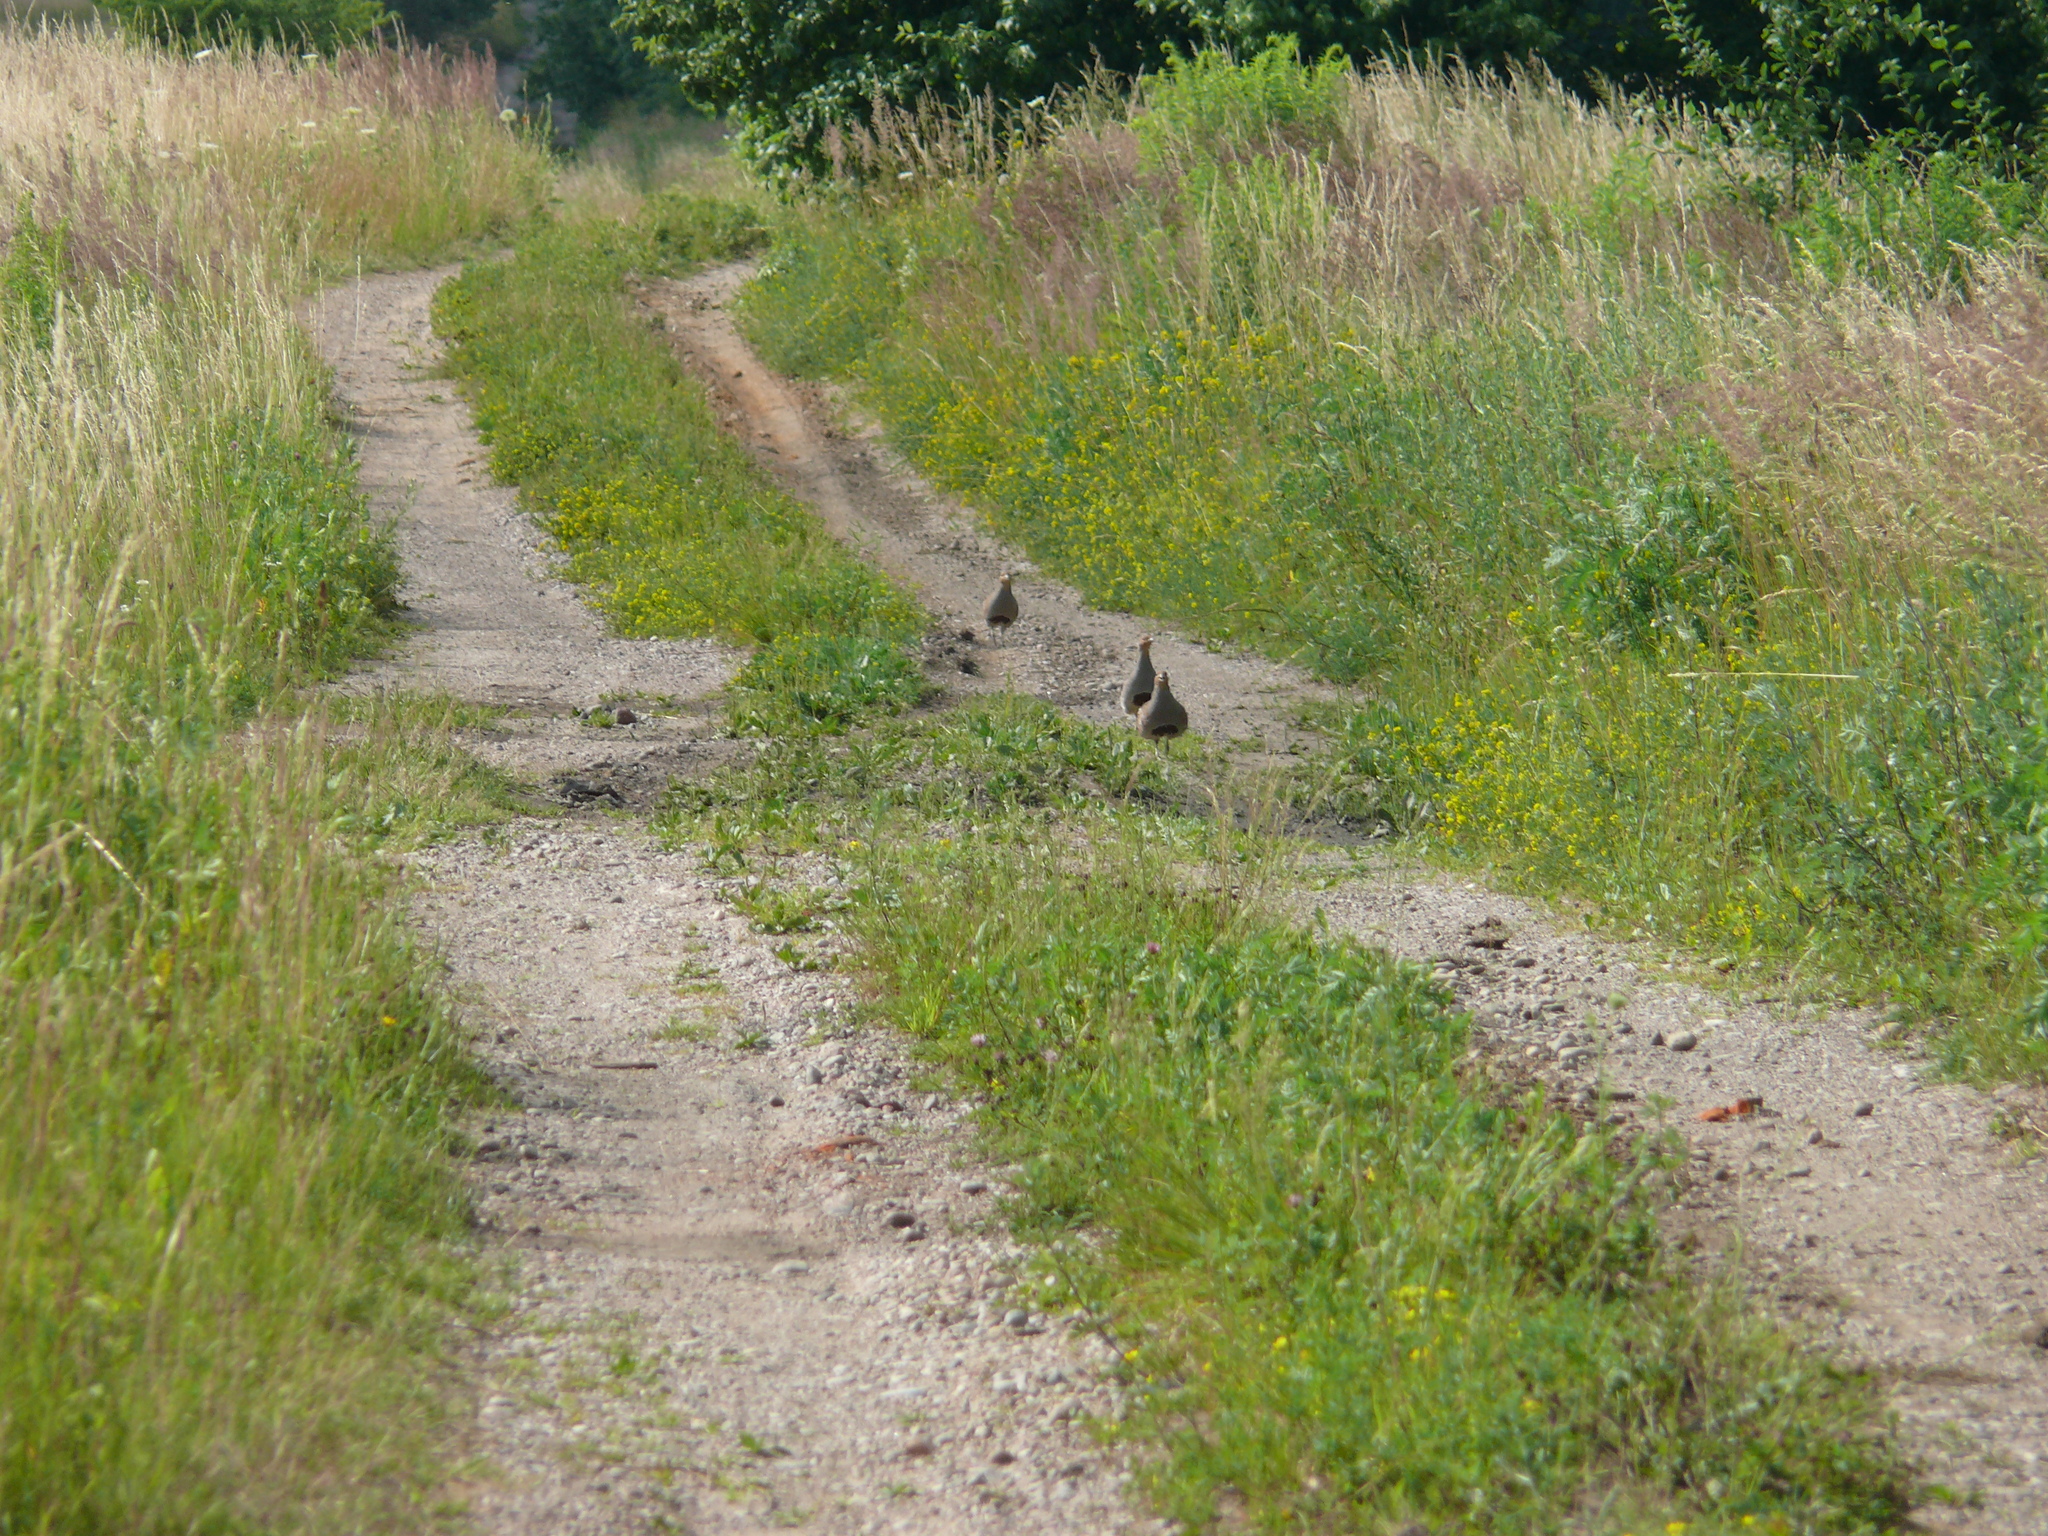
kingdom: Animalia
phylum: Chordata
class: Aves
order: Galliformes
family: Phasianidae
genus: Perdix
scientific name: Perdix perdix
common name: Grey partridge
